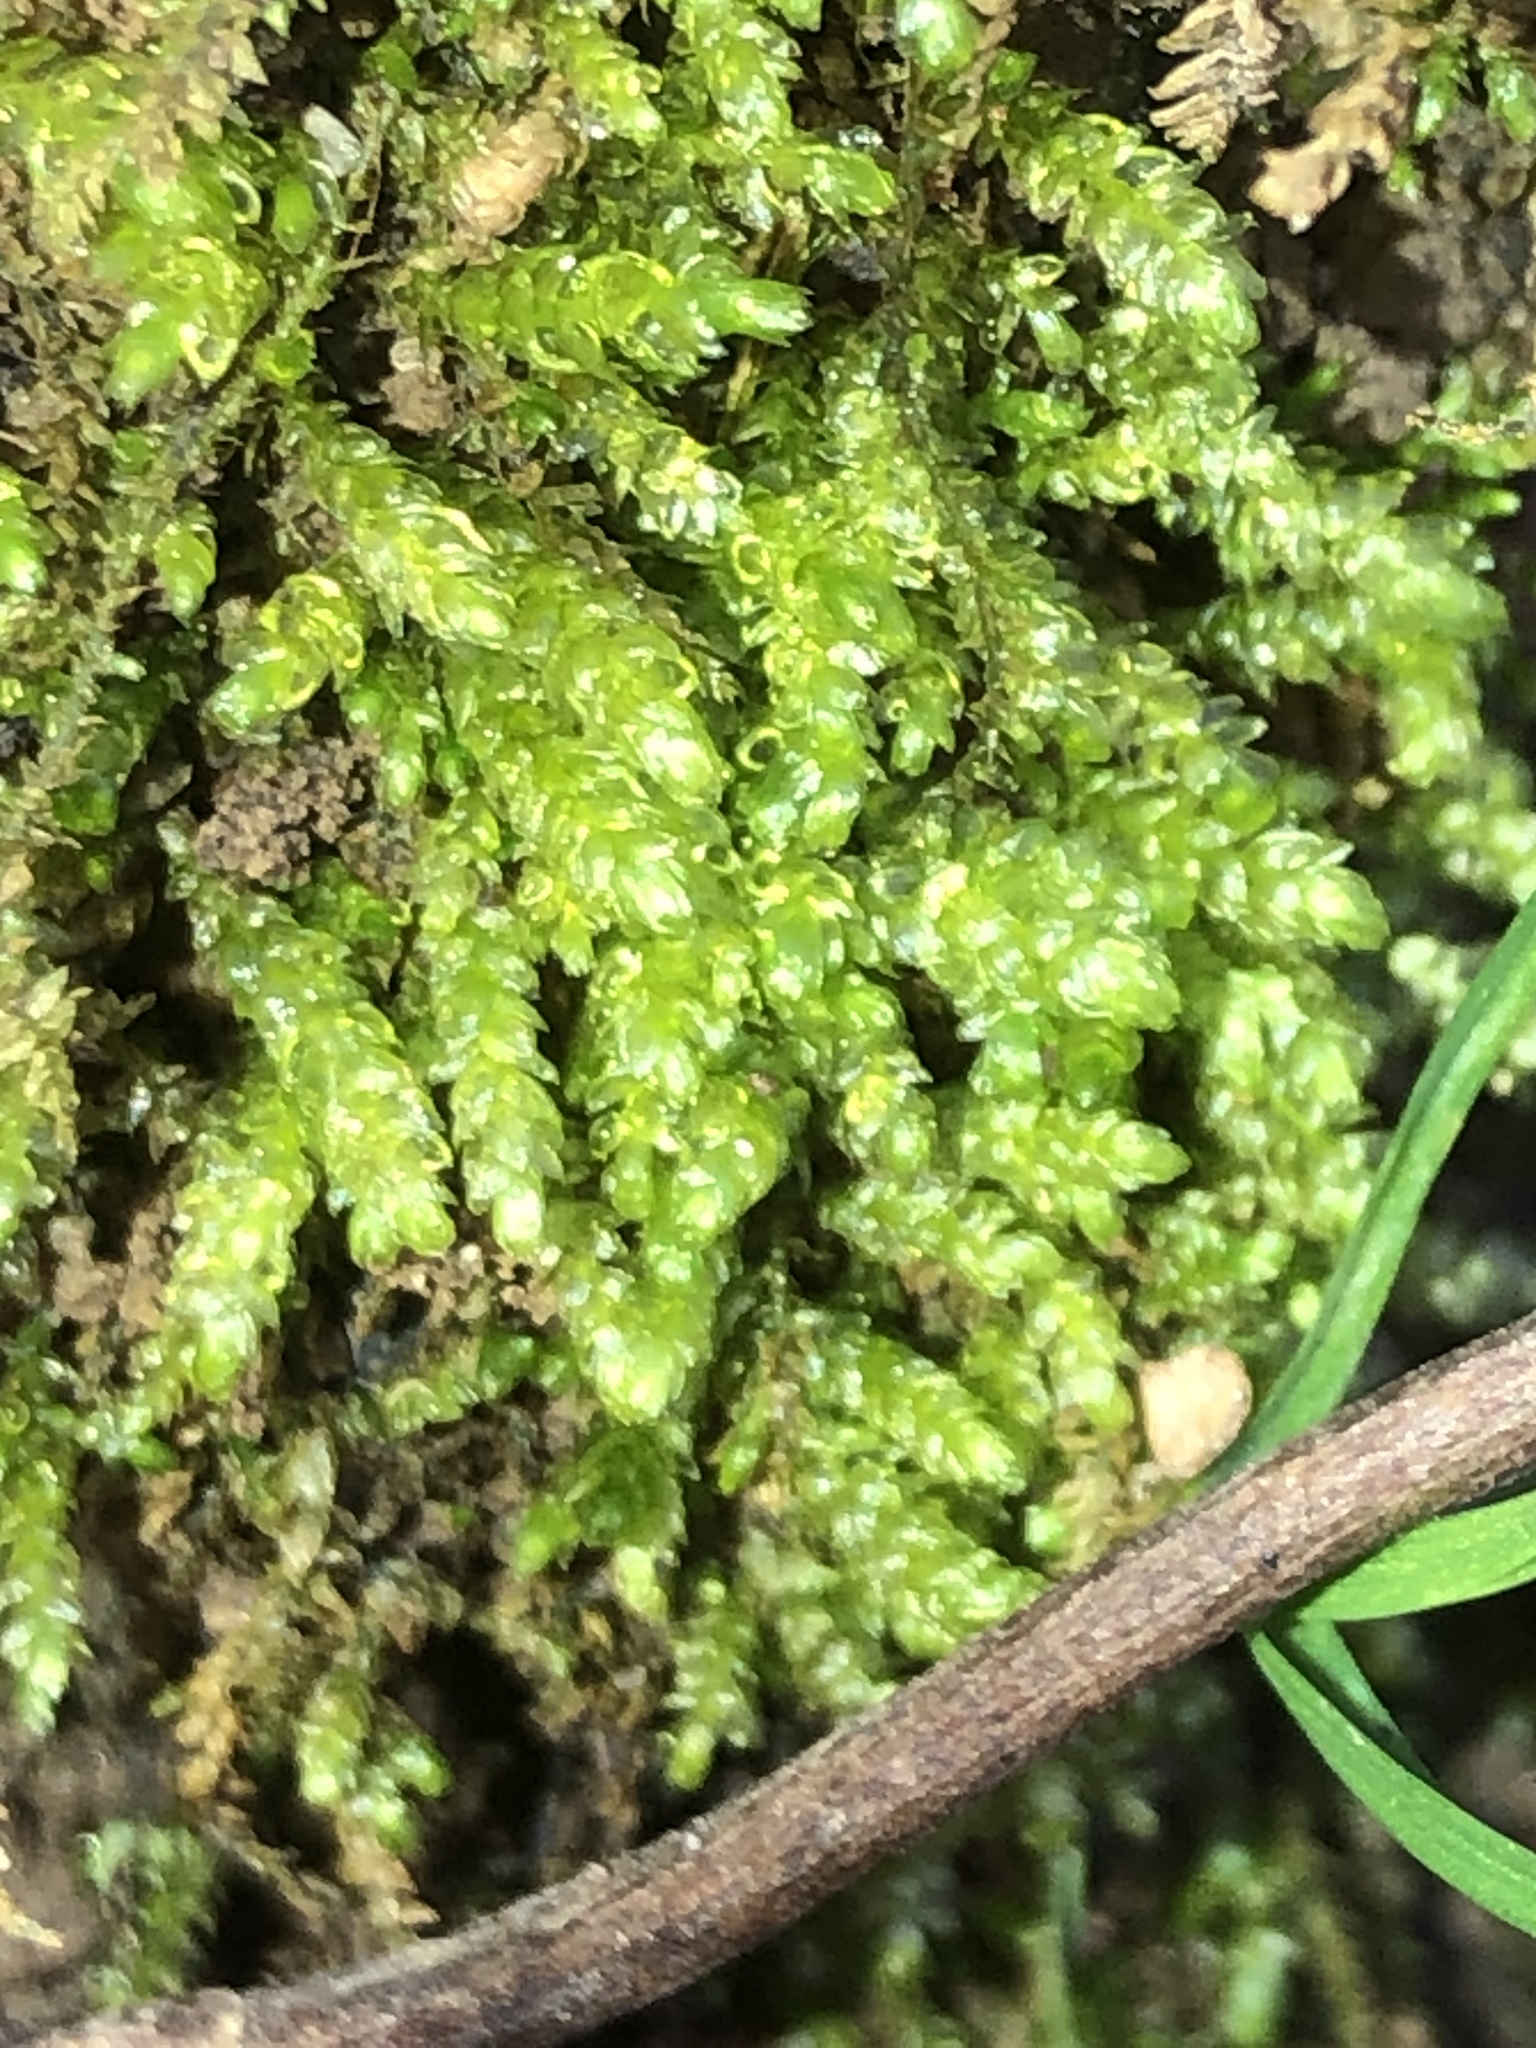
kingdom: Plantae
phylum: Bryophyta
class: Bryopsida
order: Hypnales
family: Plagiotheciaceae
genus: Plagiothecium
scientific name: Plagiothecium cavifolium
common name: Round silk moss
